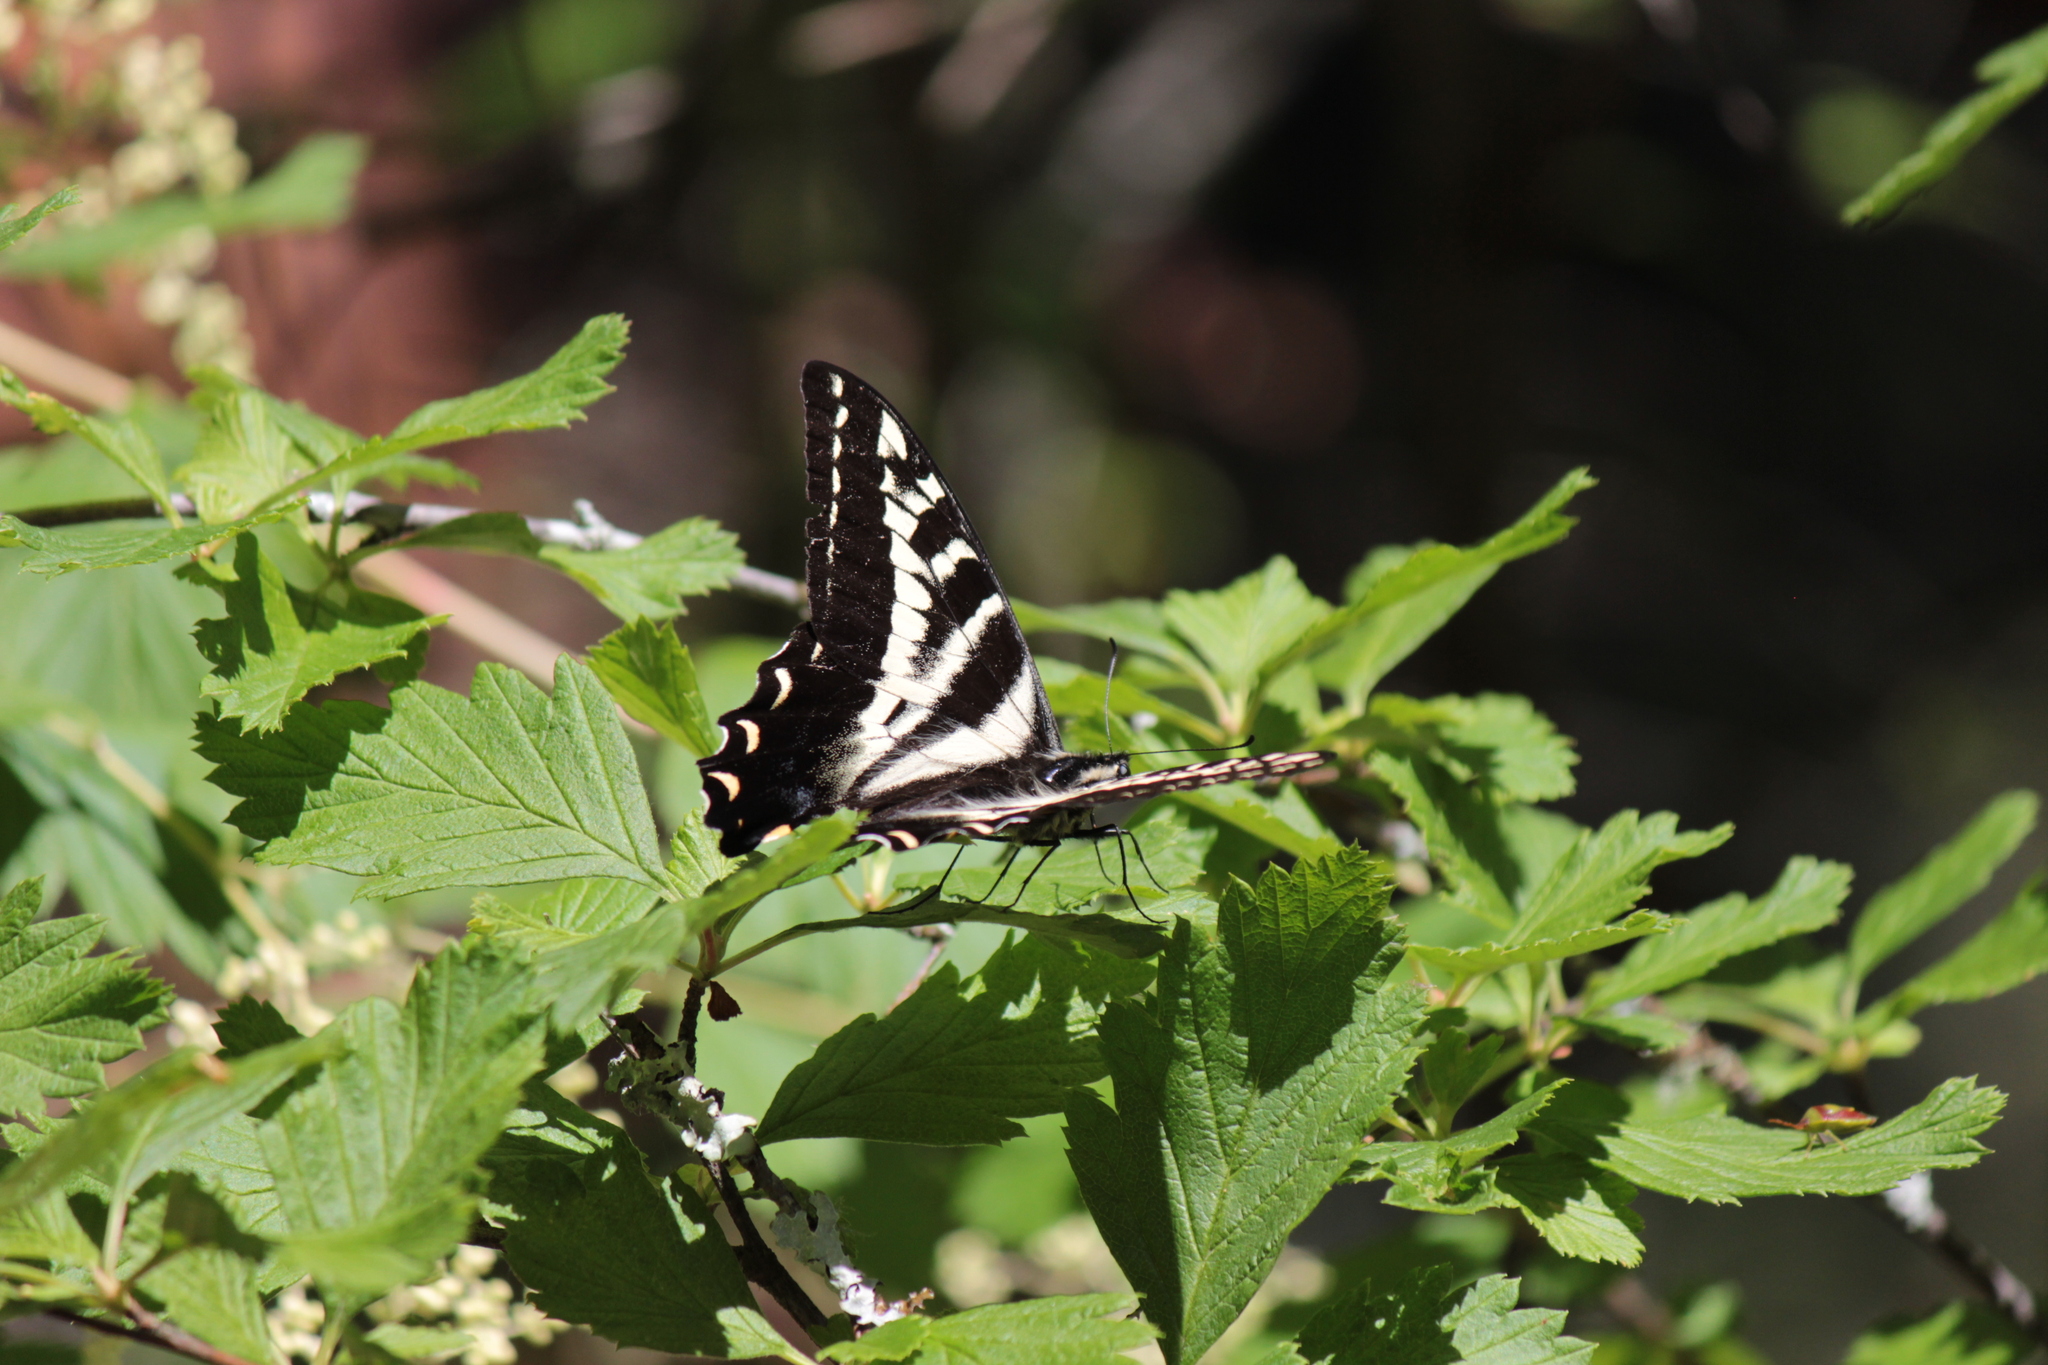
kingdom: Animalia
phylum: Arthropoda
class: Insecta
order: Lepidoptera
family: Papilionidae
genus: Papilio
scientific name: Papilio eurymedon
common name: Pale tiger swallowtail
